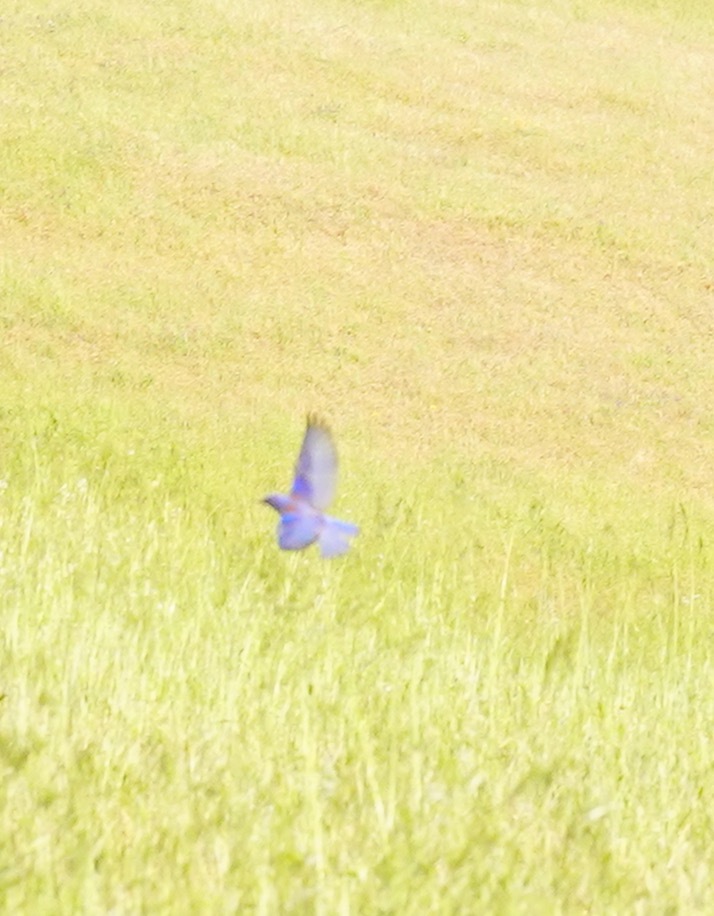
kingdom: Animalia
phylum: Chordata
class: Aves
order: Passeriformes
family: Turdidae
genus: Sialia
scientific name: Sialia mexicana
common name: Western bluebird
